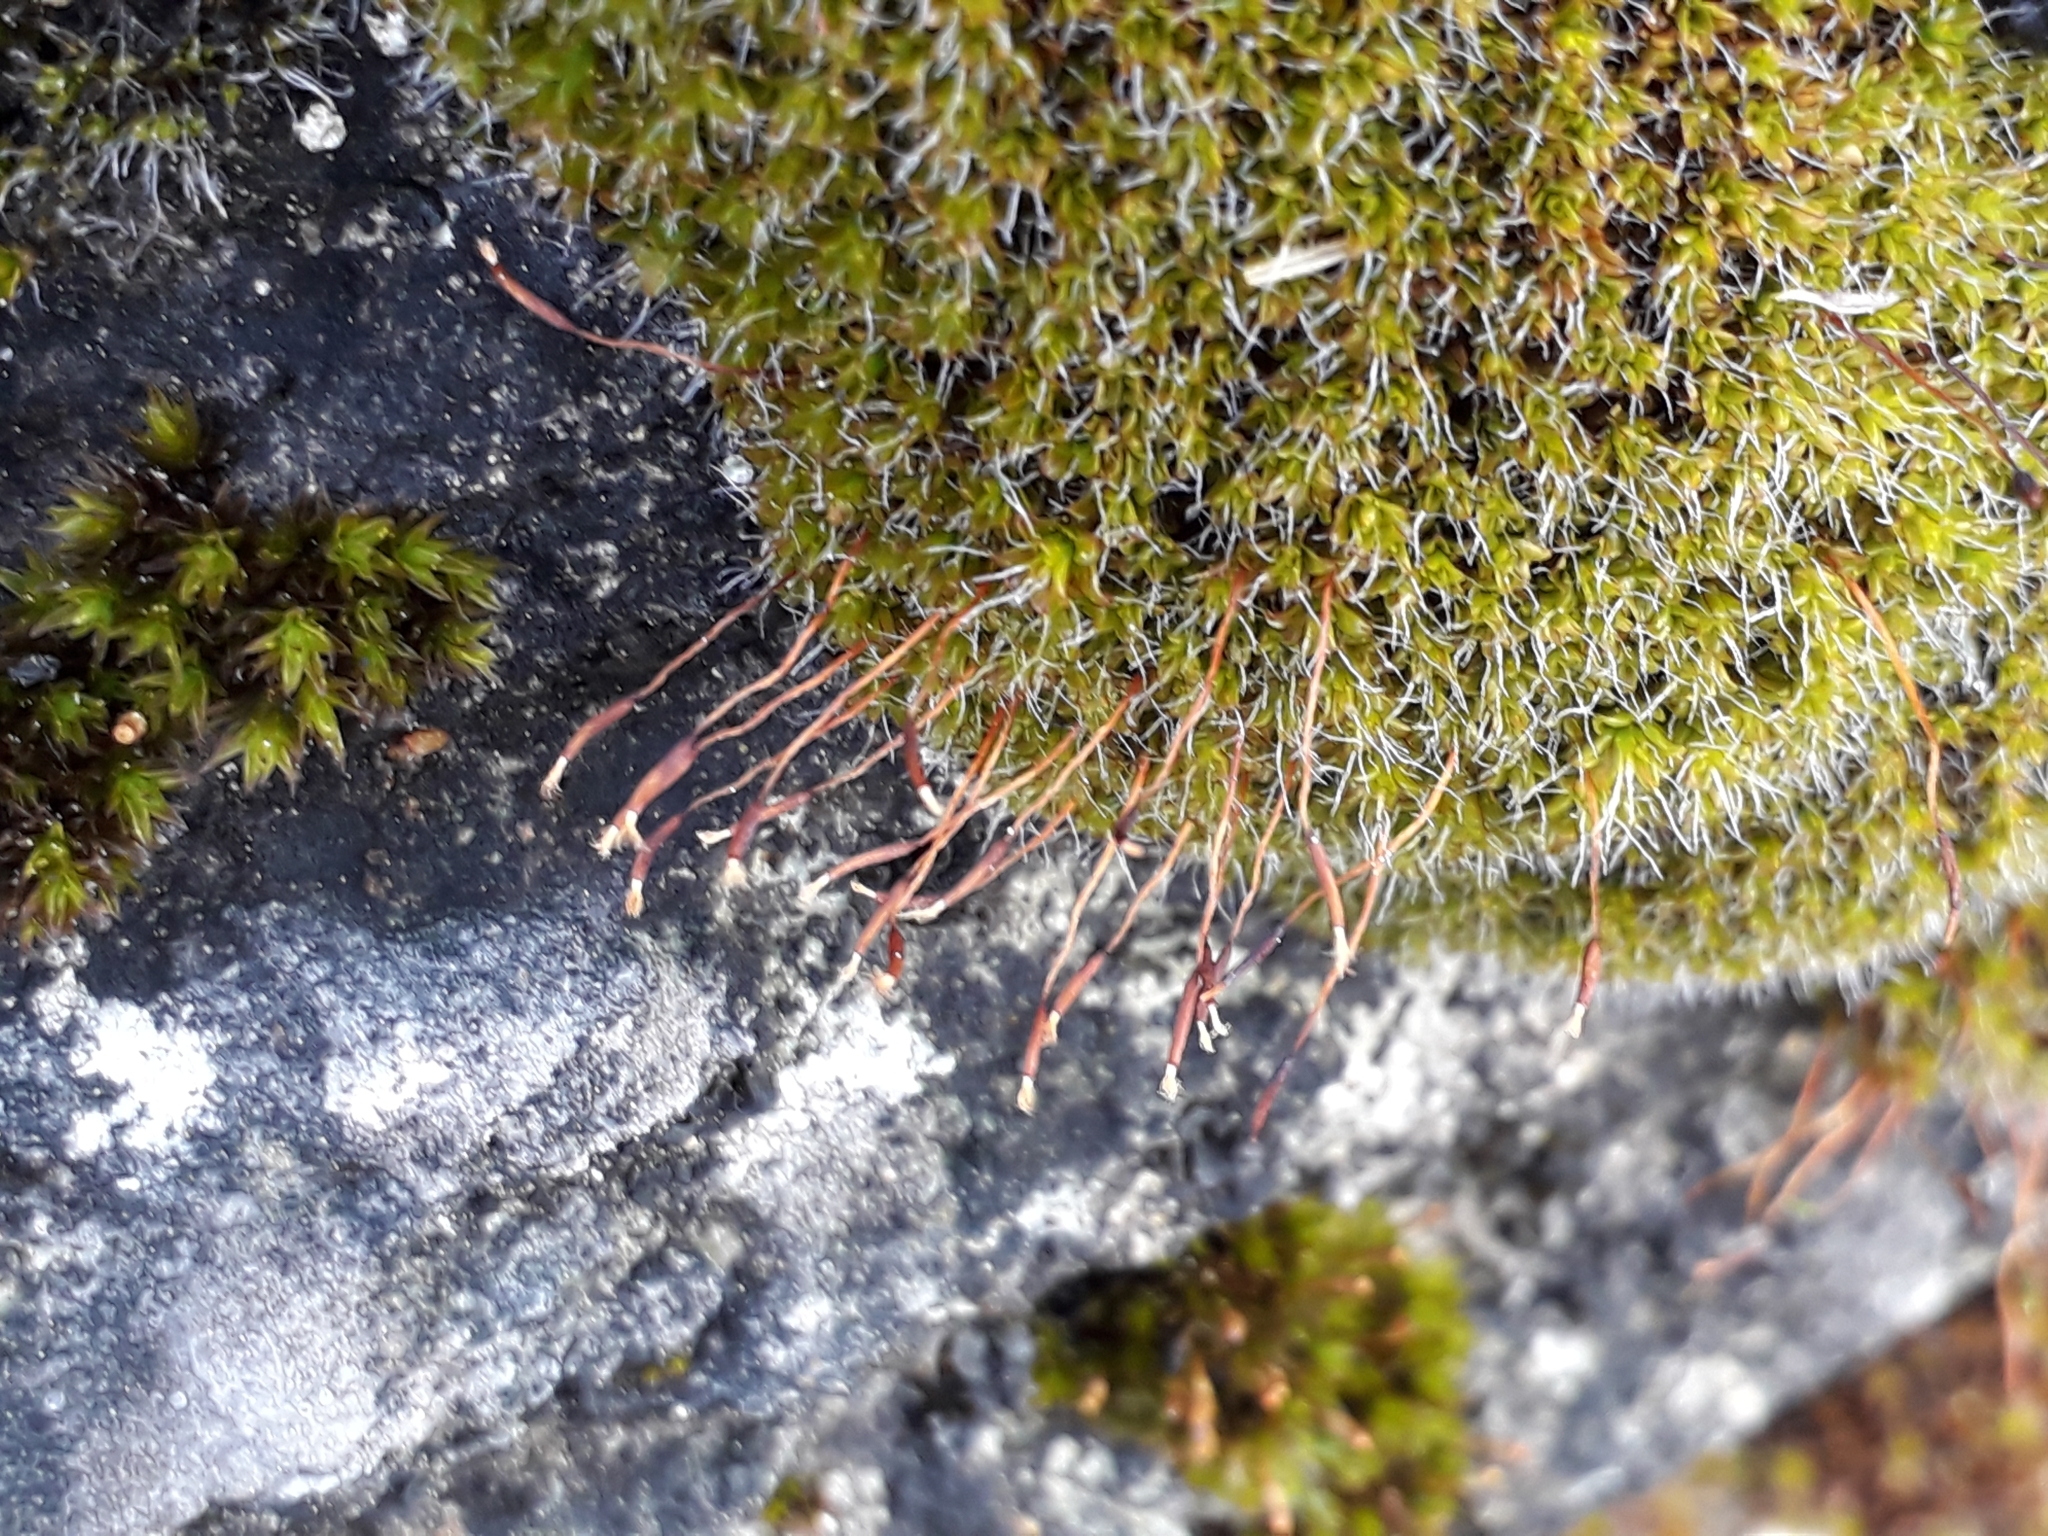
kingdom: Plantae
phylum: Bryophyta
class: Bryopsida
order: Pottiales
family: Pottiaceae
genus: Tortula
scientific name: Tortula muralis
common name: Wall screw-moss
